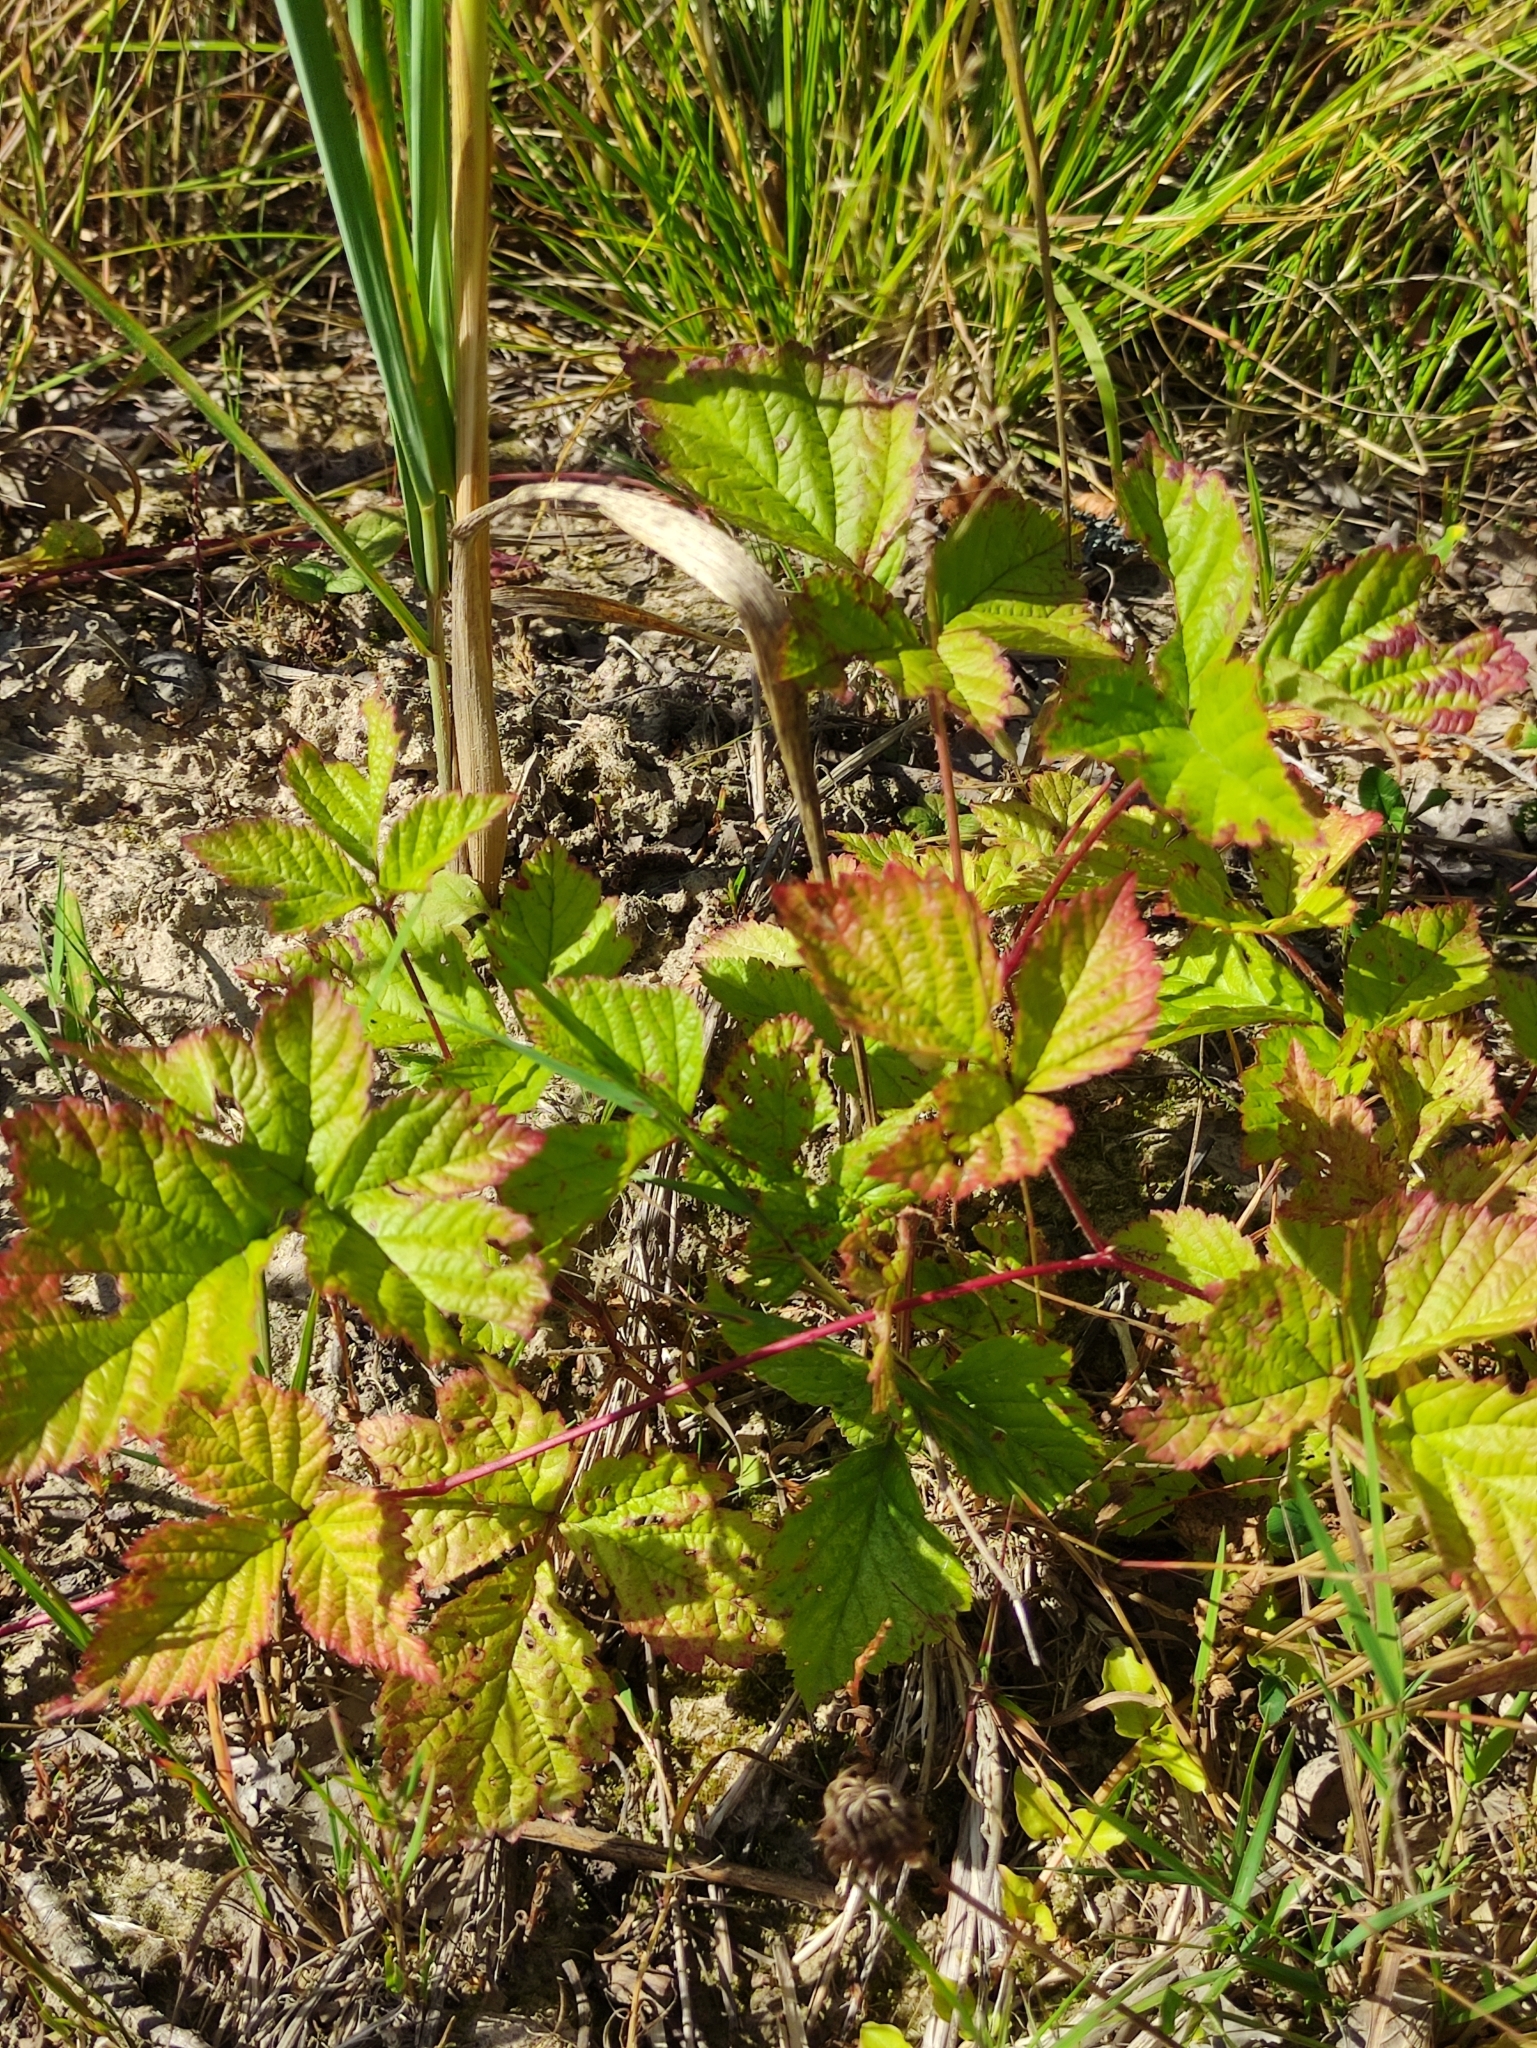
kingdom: Plantae
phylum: Tracheophyta
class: Magnoliopsida
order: Rosales
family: Rosaceae
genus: Rubus
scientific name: Rubus saxatilis
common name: Stone bramble
